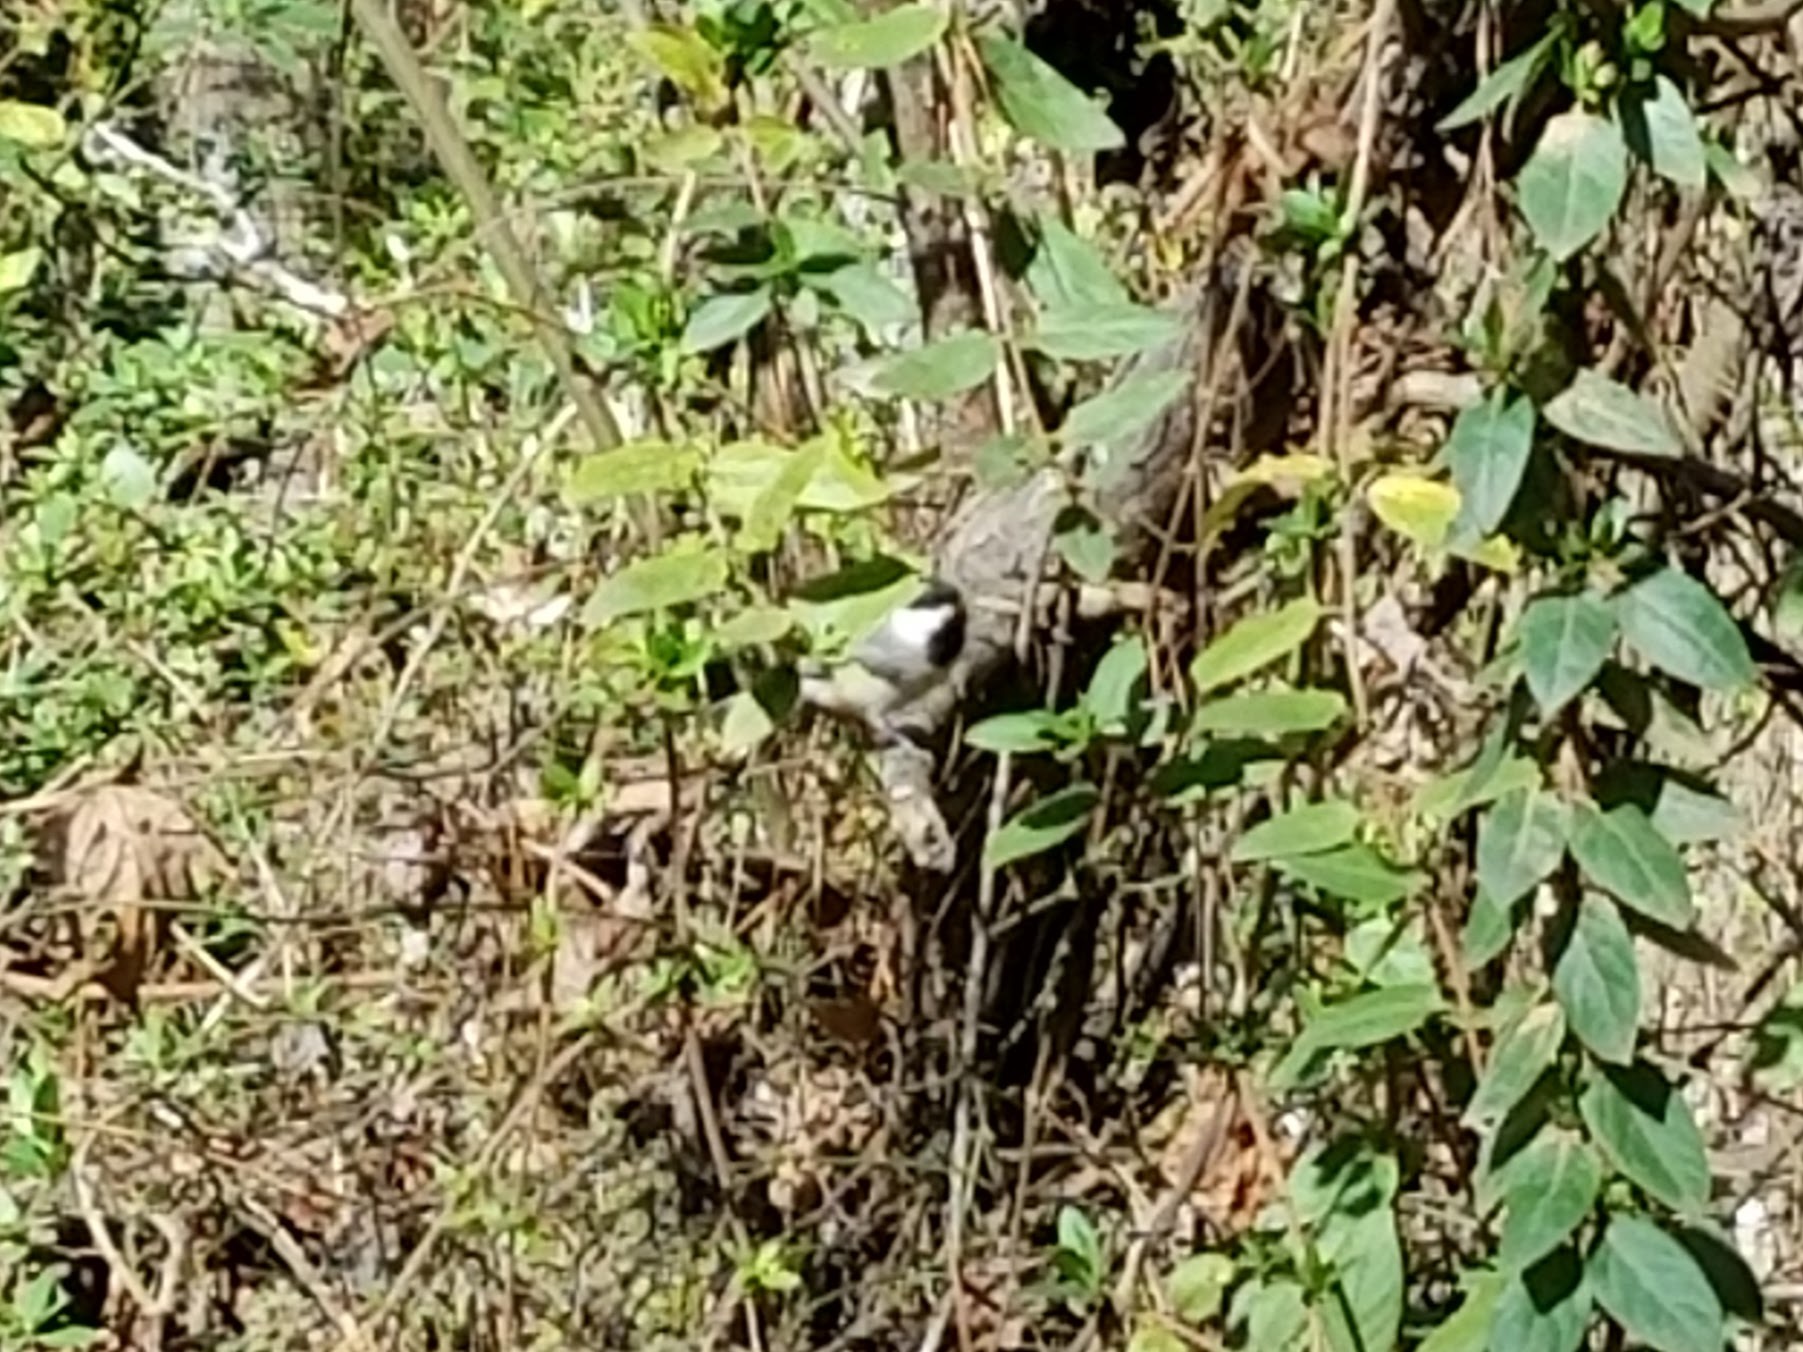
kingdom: Animalia
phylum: Chordata
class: Aves
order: Passeriformes
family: Paridae
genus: Poecile
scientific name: Poecile carolinensis
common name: Carolina chickadee
